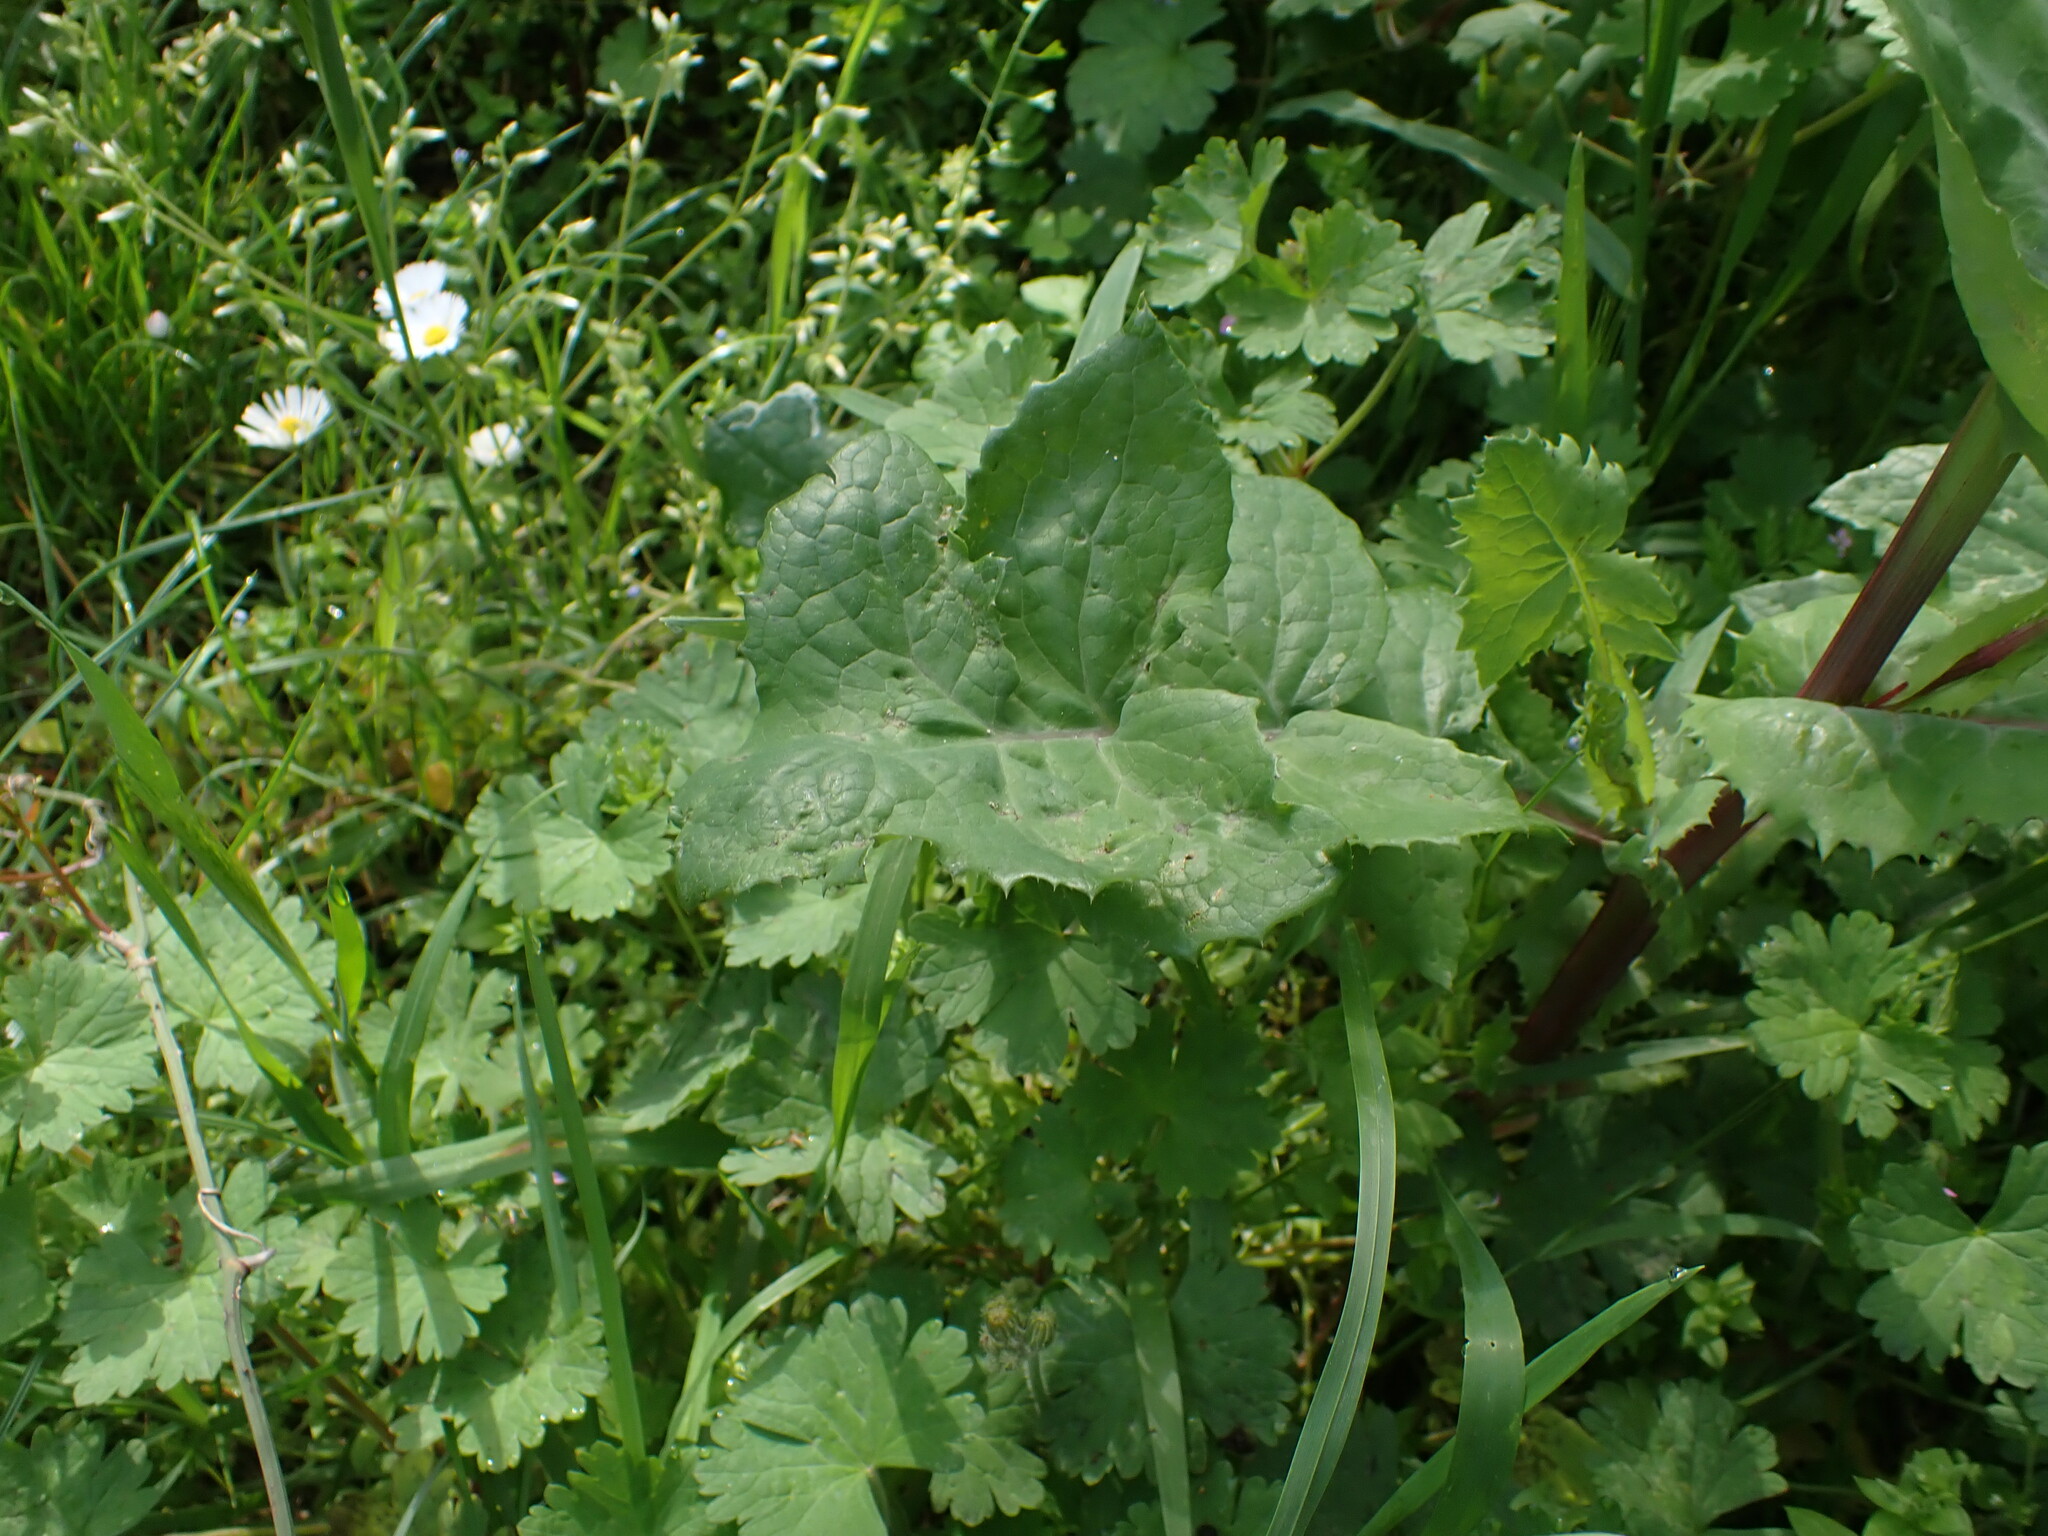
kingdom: Plantae
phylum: Tracheophyta
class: Magnoliopsida
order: Asterales
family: Asteraceae
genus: Sonchus
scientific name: Sonchus oleraceus
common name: Common sowthistle
